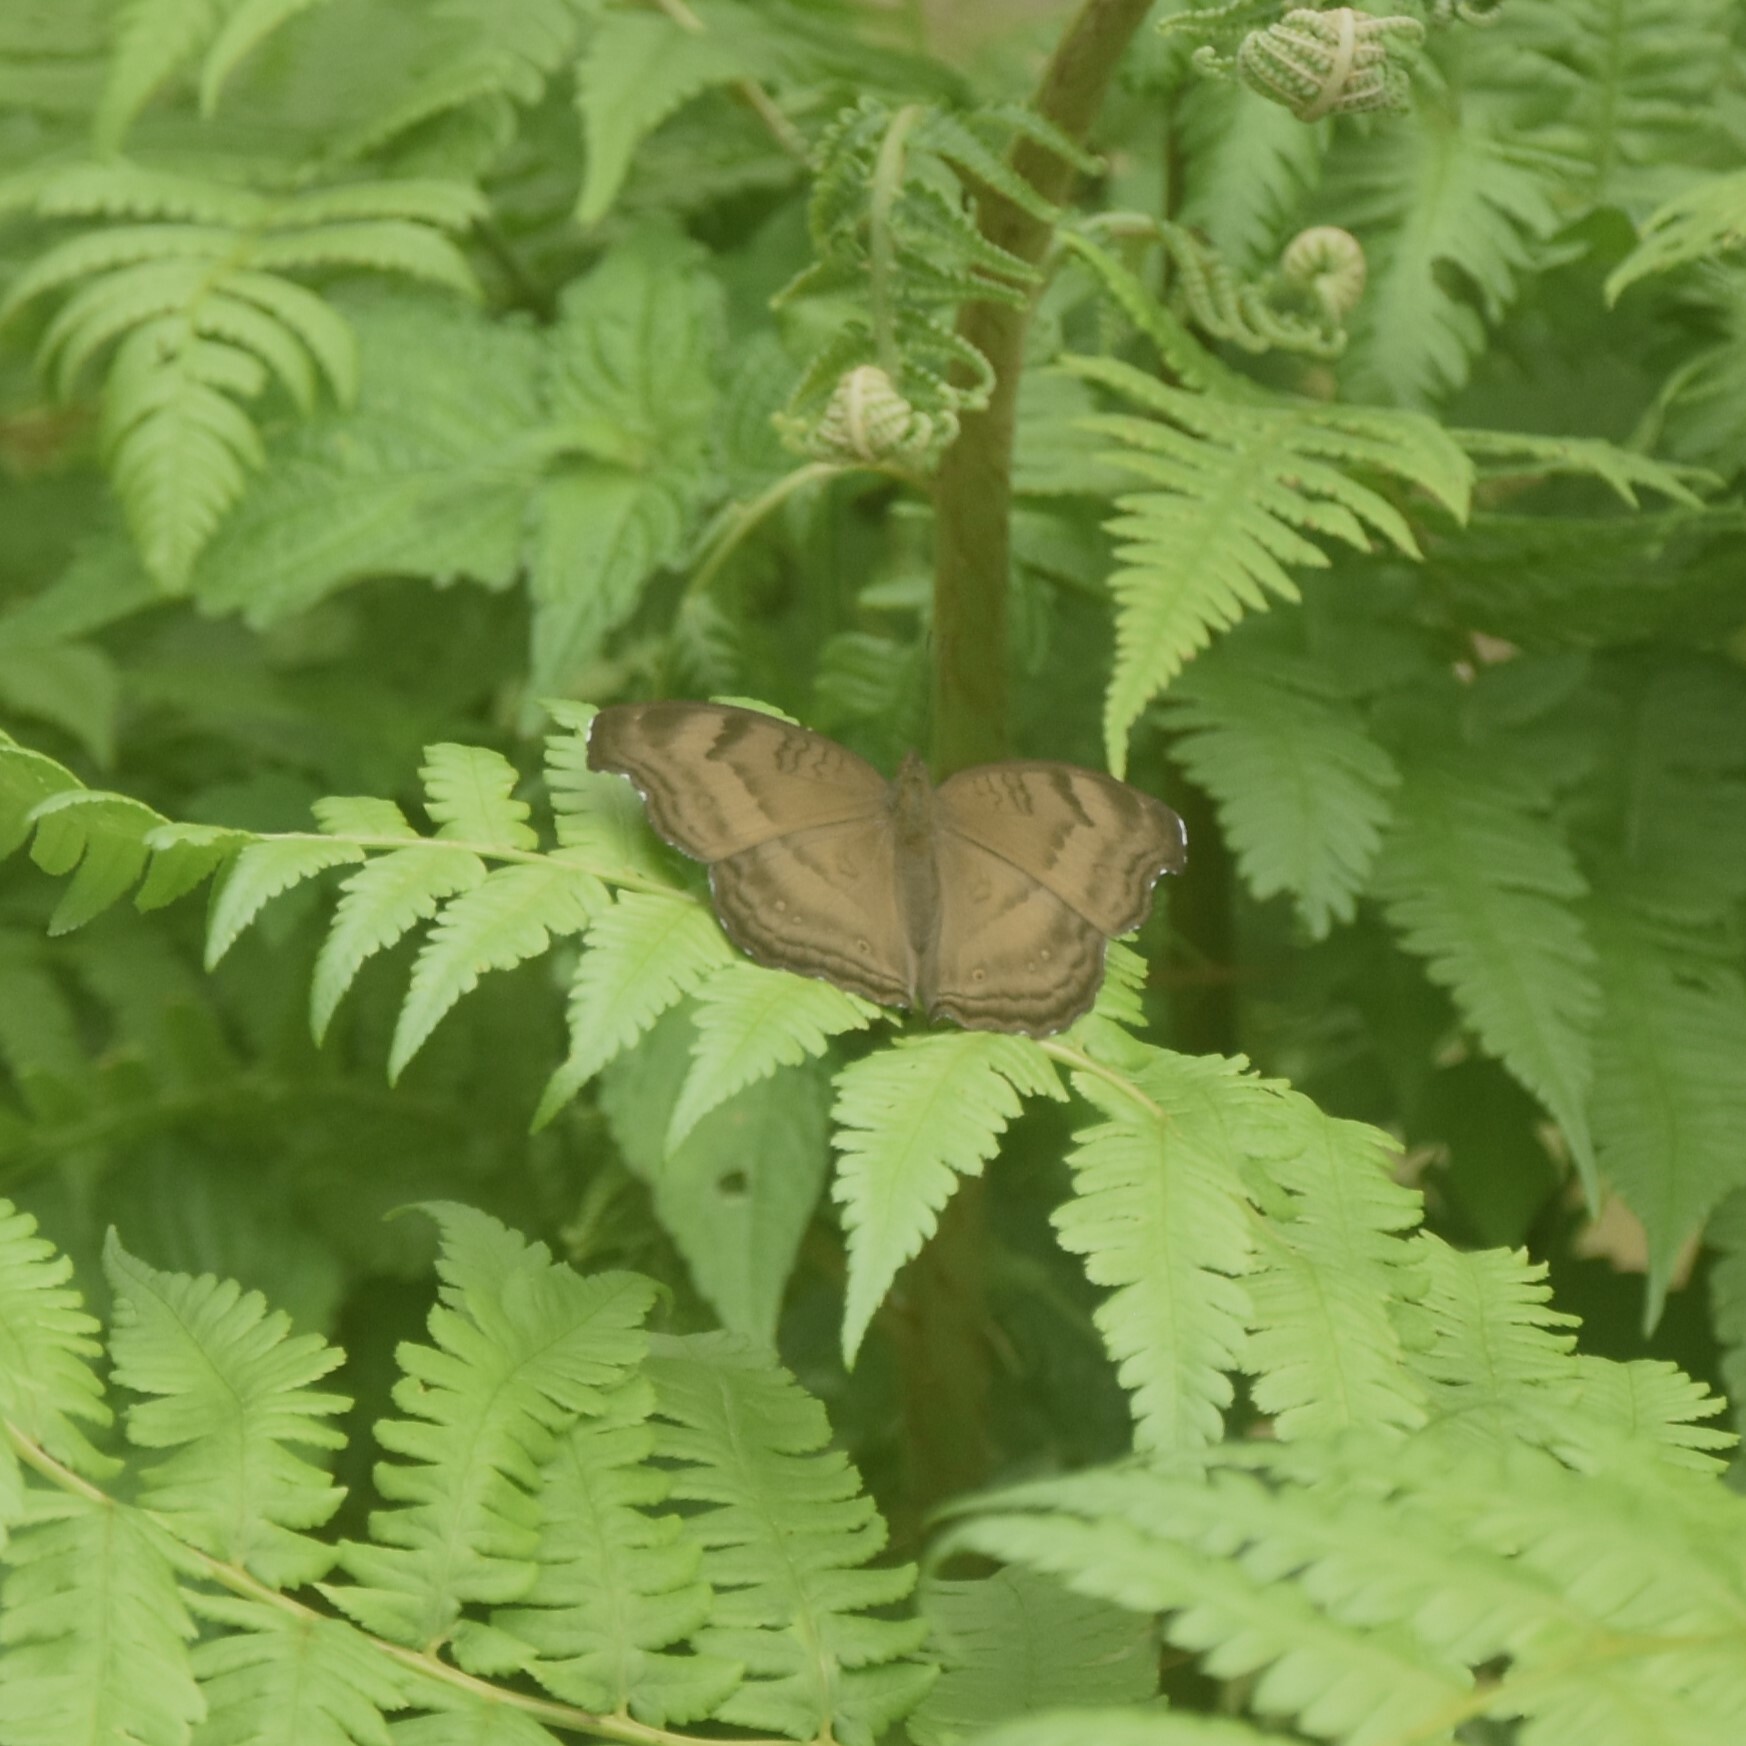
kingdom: Animalia
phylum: Arthropoda
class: Insecta
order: Lepidoptera
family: Nymphalidae
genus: Junonia
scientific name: Junonia iphita
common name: Chocolate pansy
